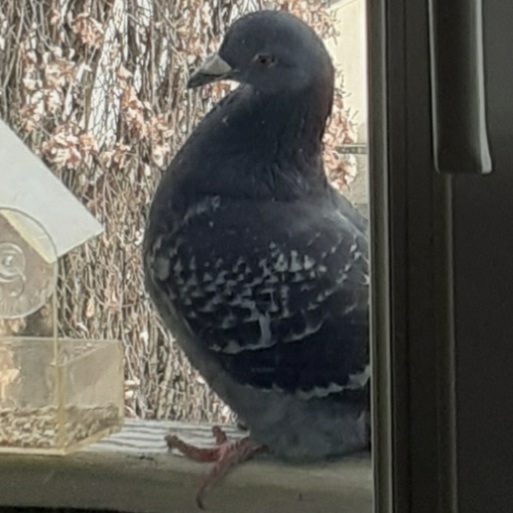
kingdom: Animalia
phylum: Chordata
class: Aves
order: Columbiformes
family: Columbidae
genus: Columba
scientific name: Columba livia
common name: Rock pigeon
